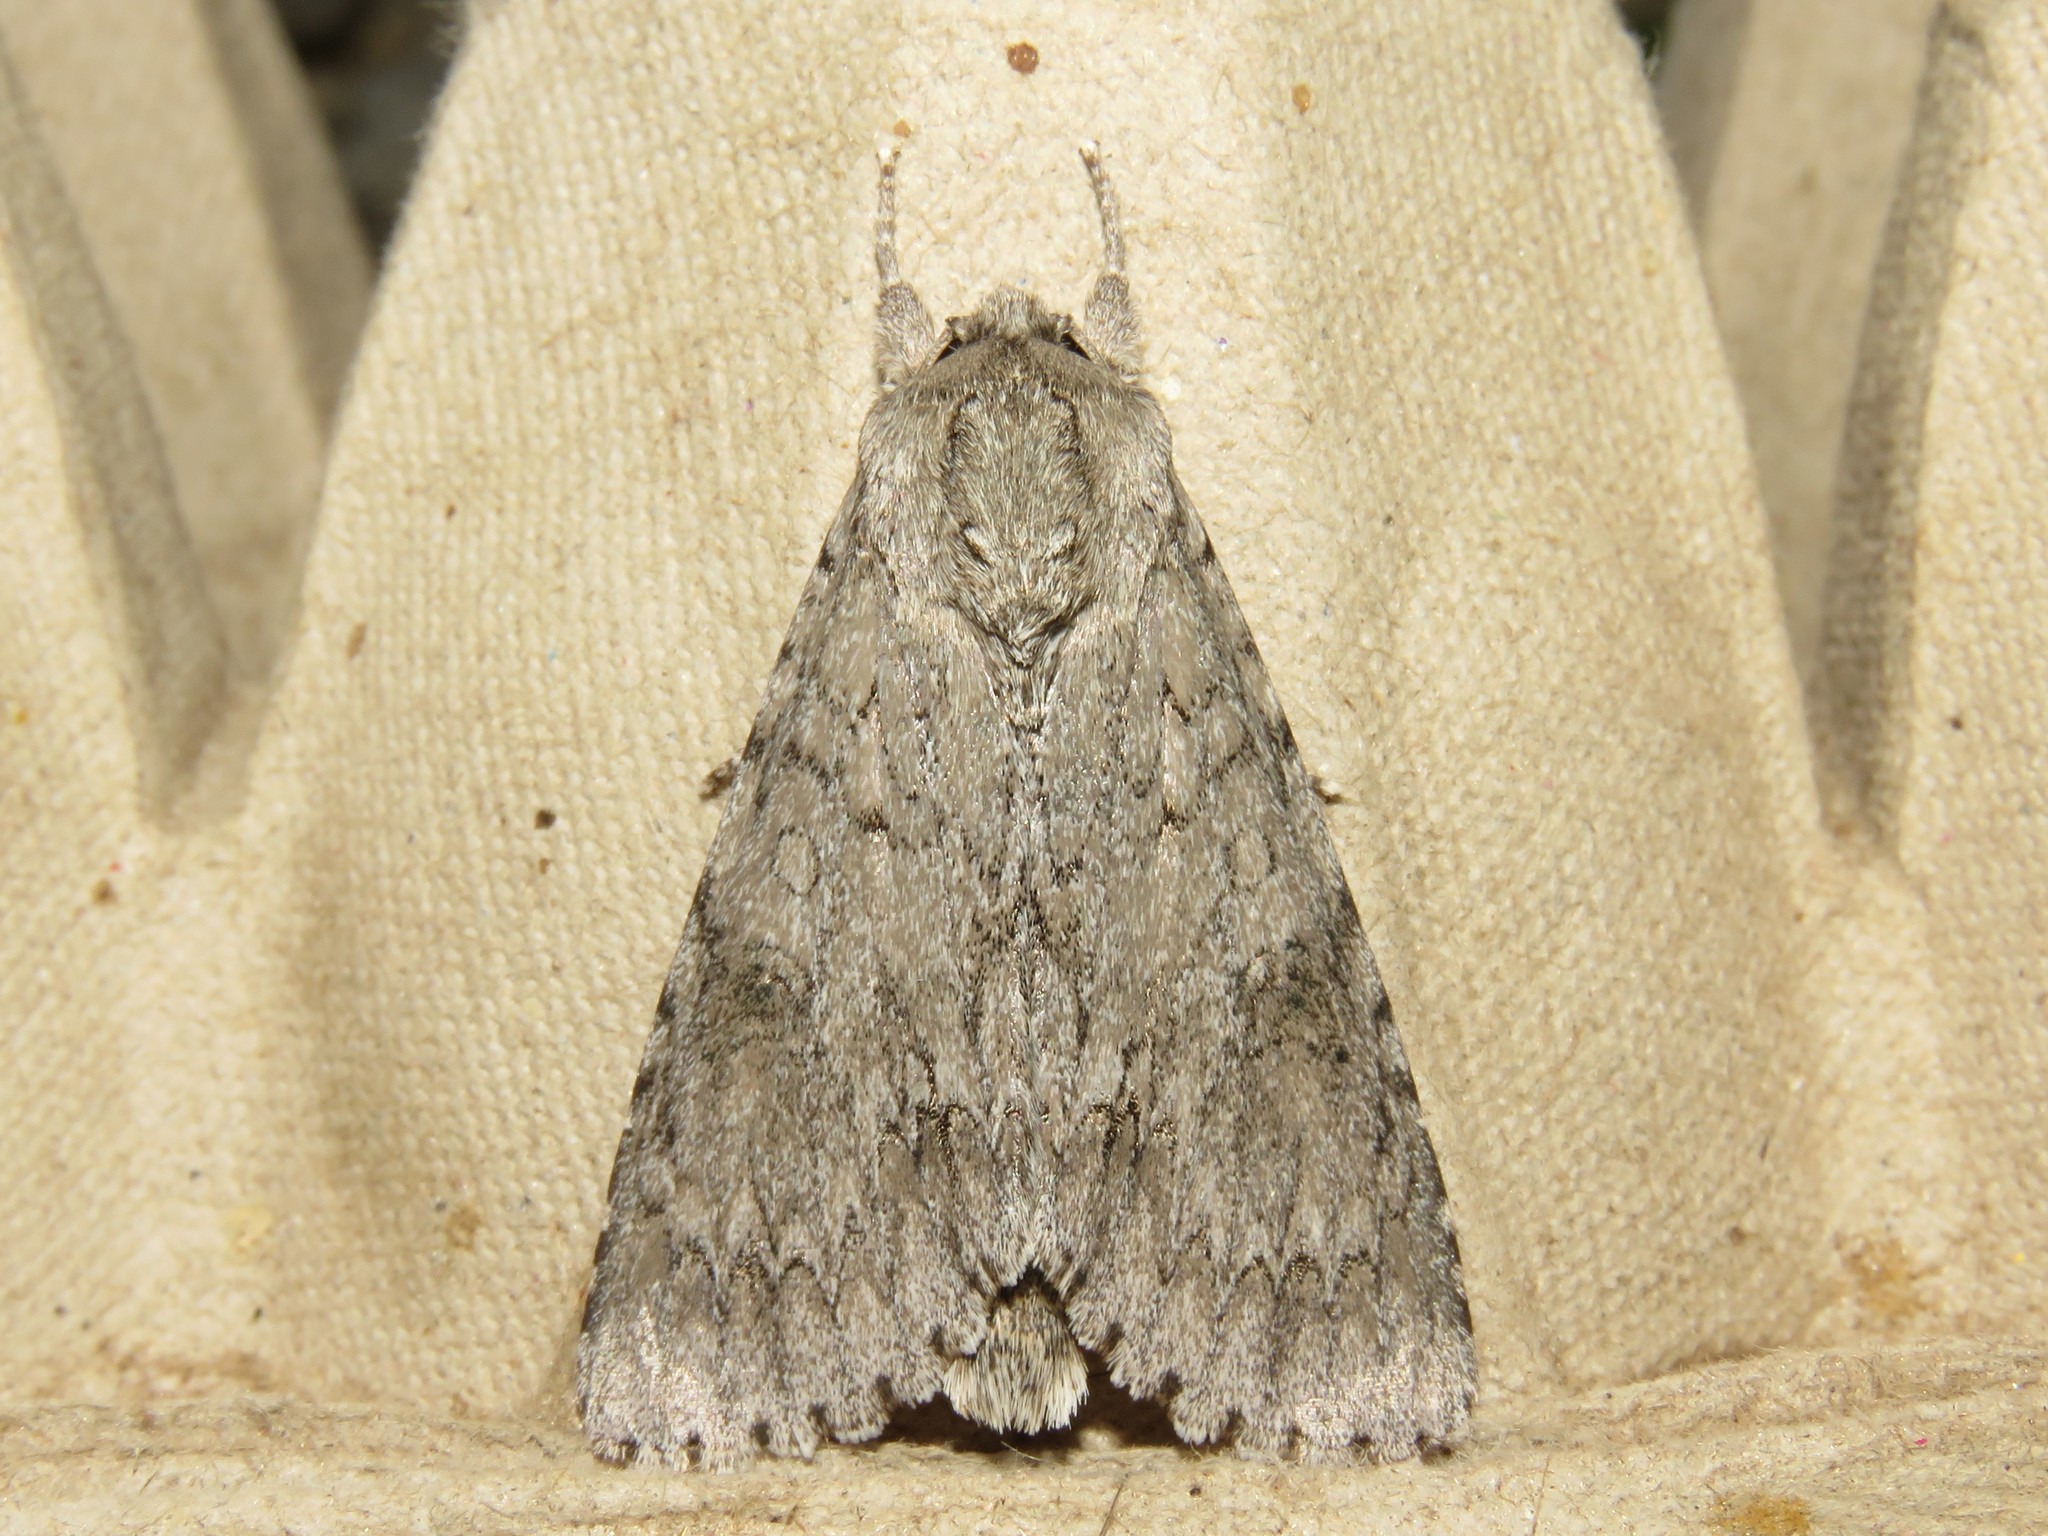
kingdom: Animalia
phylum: Arthropoda
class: Insecta
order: Lepidoptera
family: Noctuidae
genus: Acronicta
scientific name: Acronicta americana
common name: American dagger
